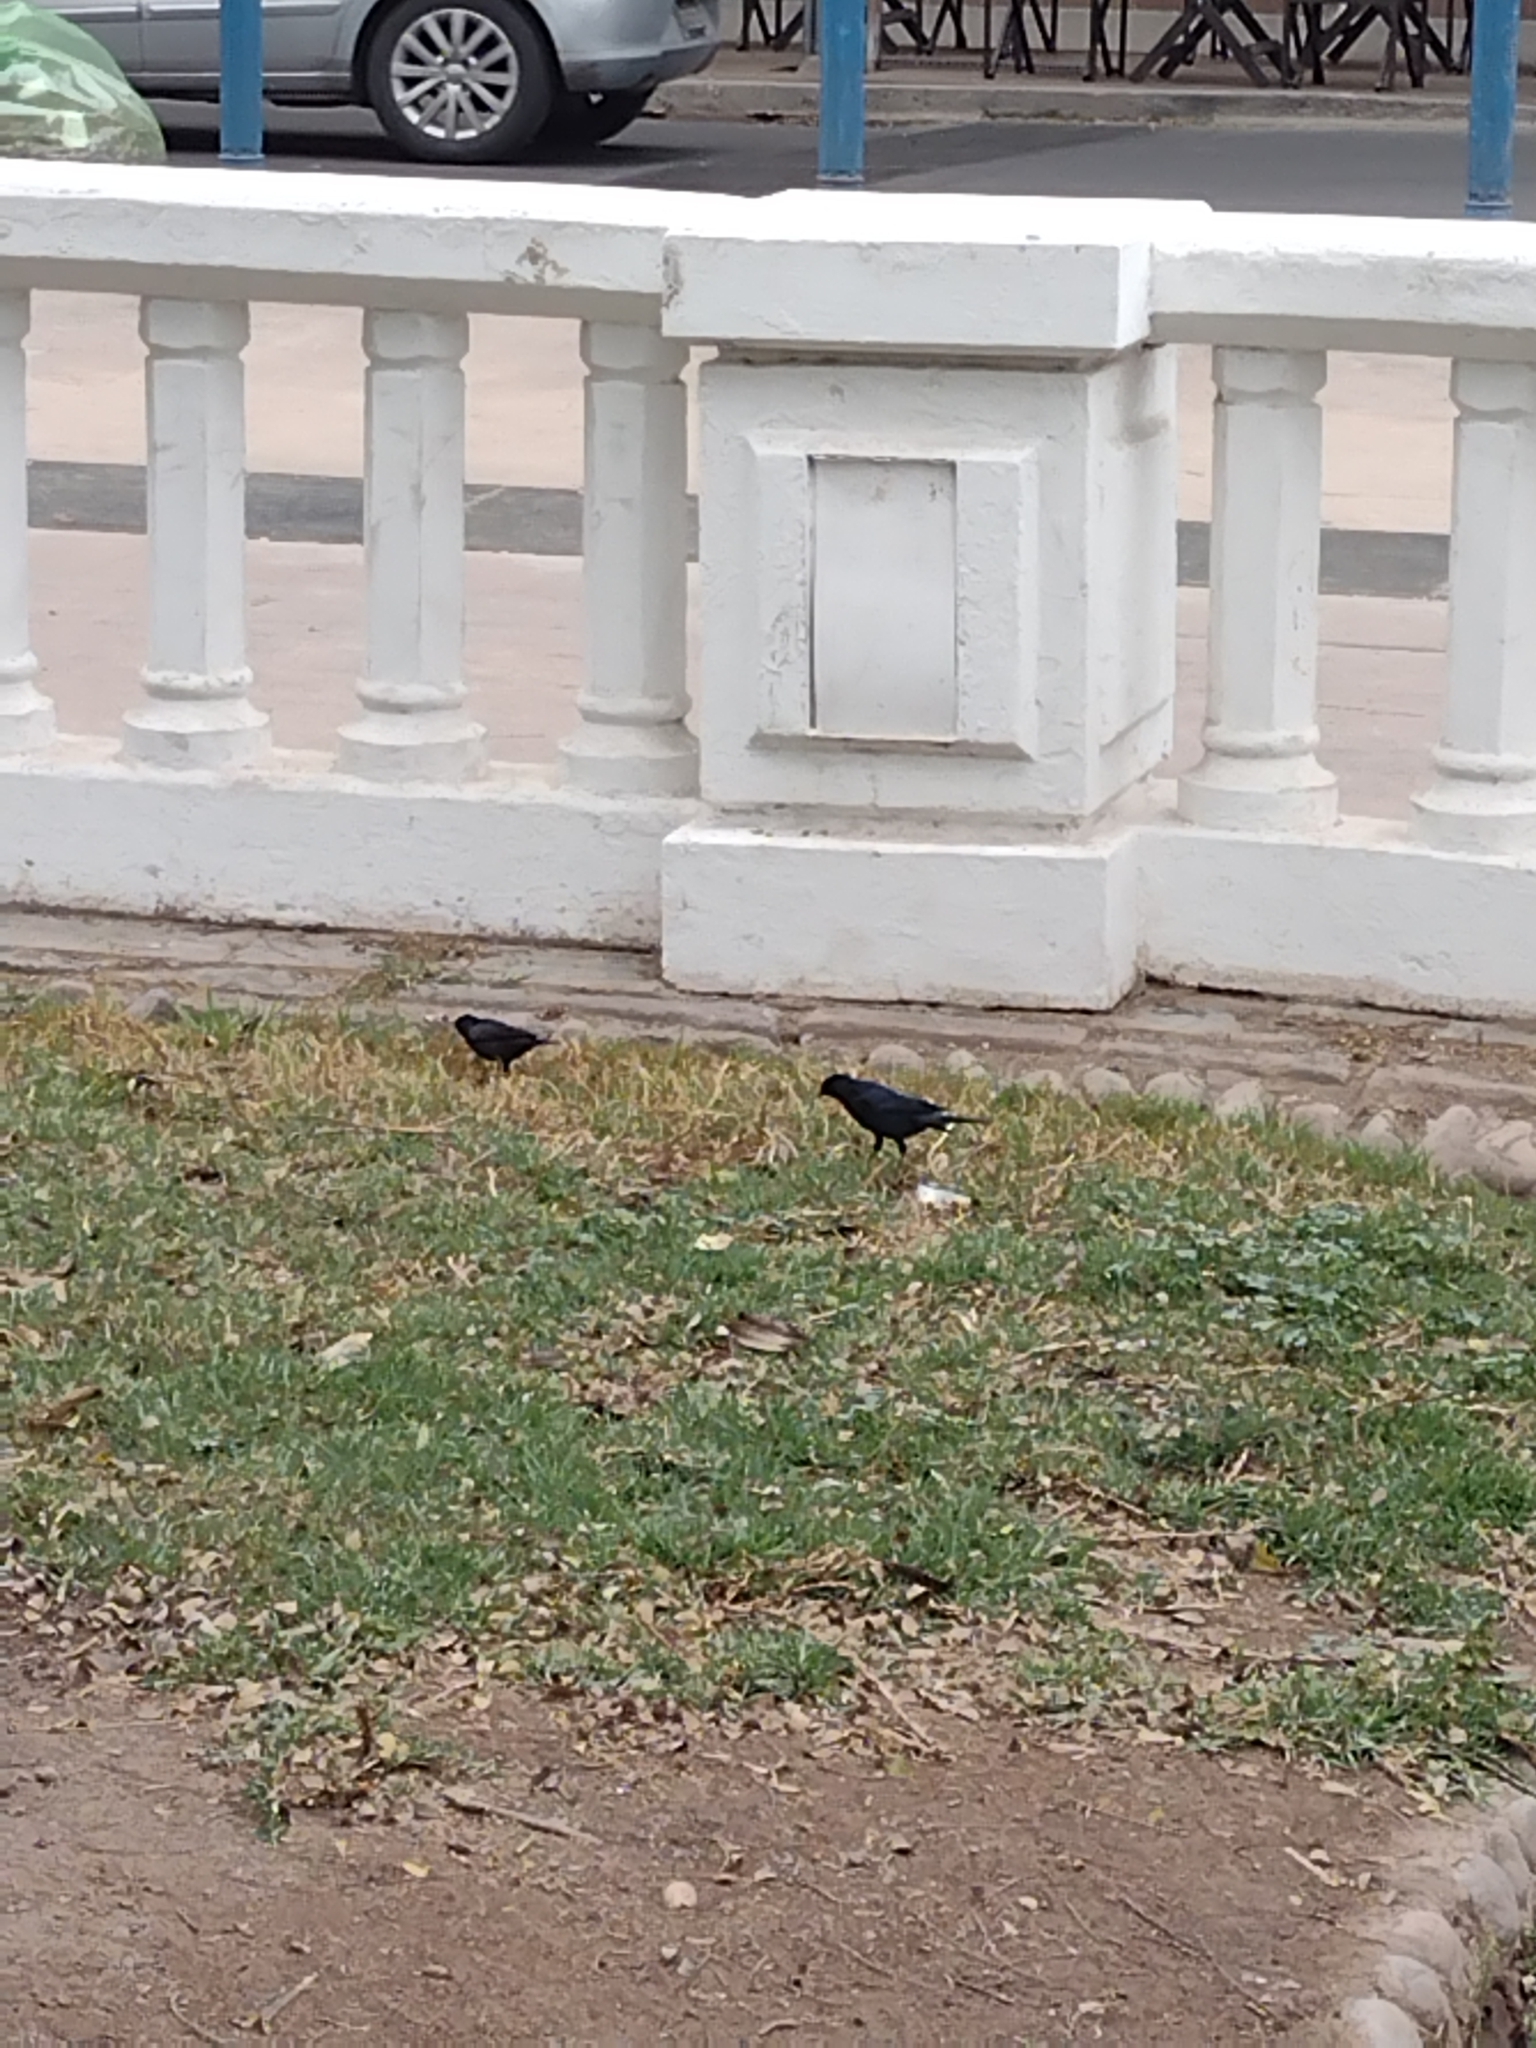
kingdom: Animalia
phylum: Chordata
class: Aves
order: Passeriformes
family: Icteridae
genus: Molothrus
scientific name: Molothrus bonariensis
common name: Shiny cowbird
